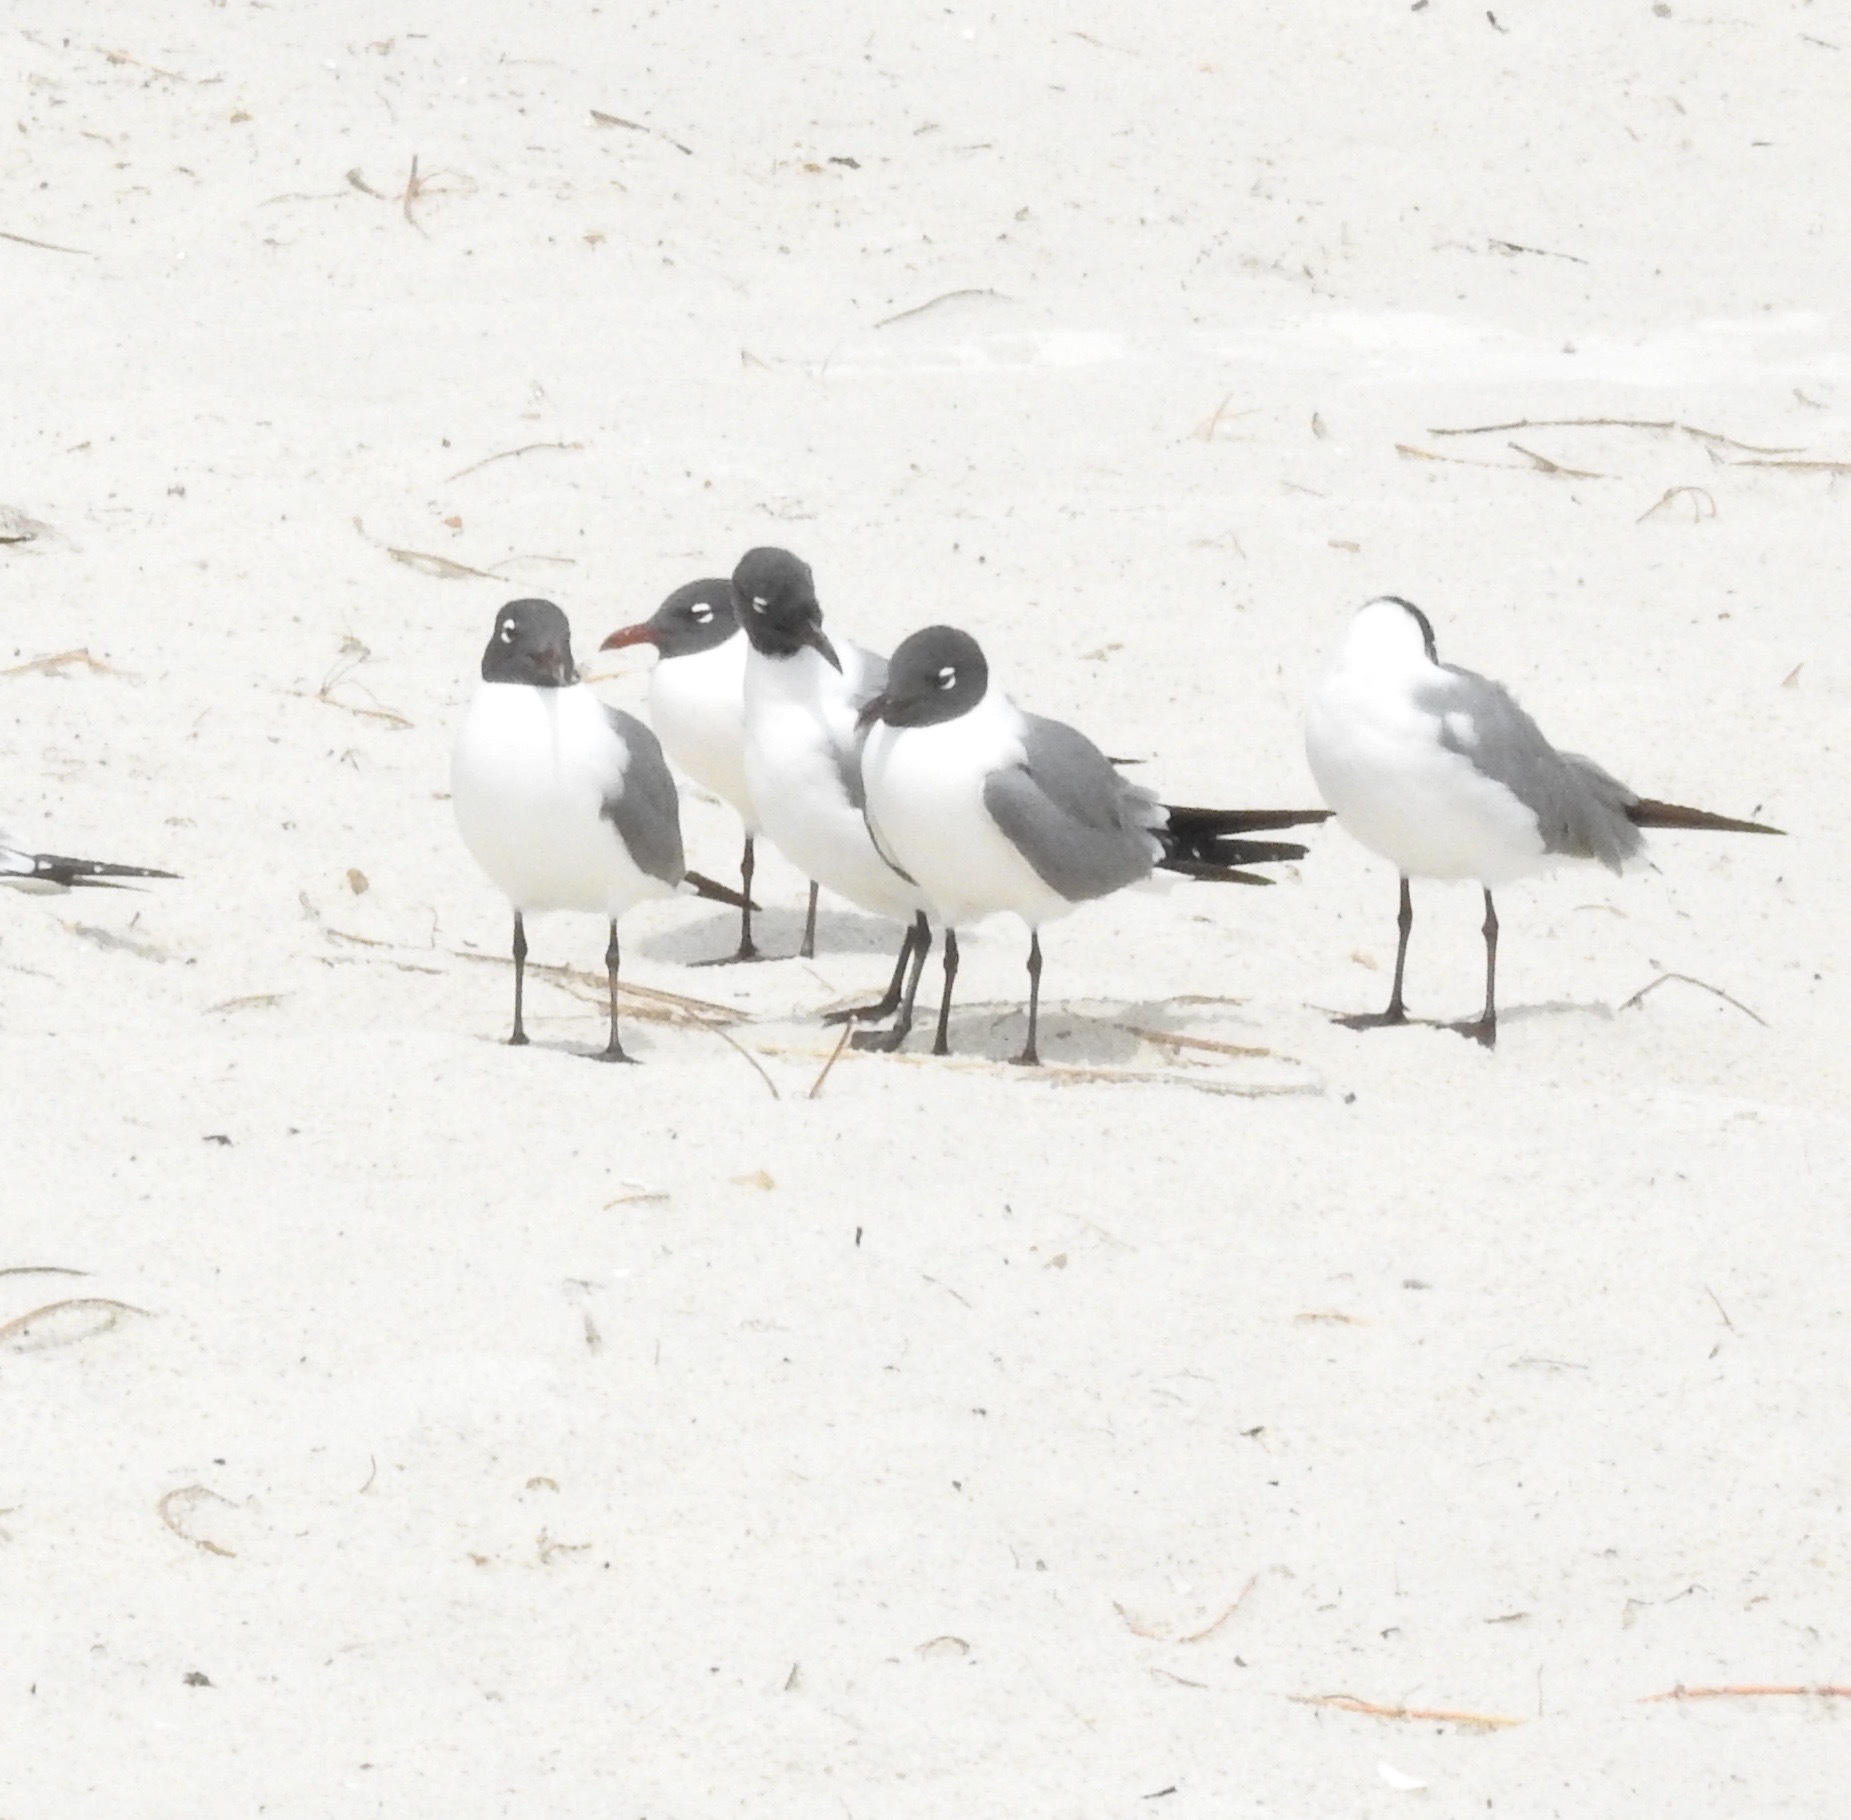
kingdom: Animalia
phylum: Chordata
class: Aves
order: Charadriiformes
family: Laridae
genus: Leucophaeus
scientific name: Leucophaeus atricilla
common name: Laughing gull
